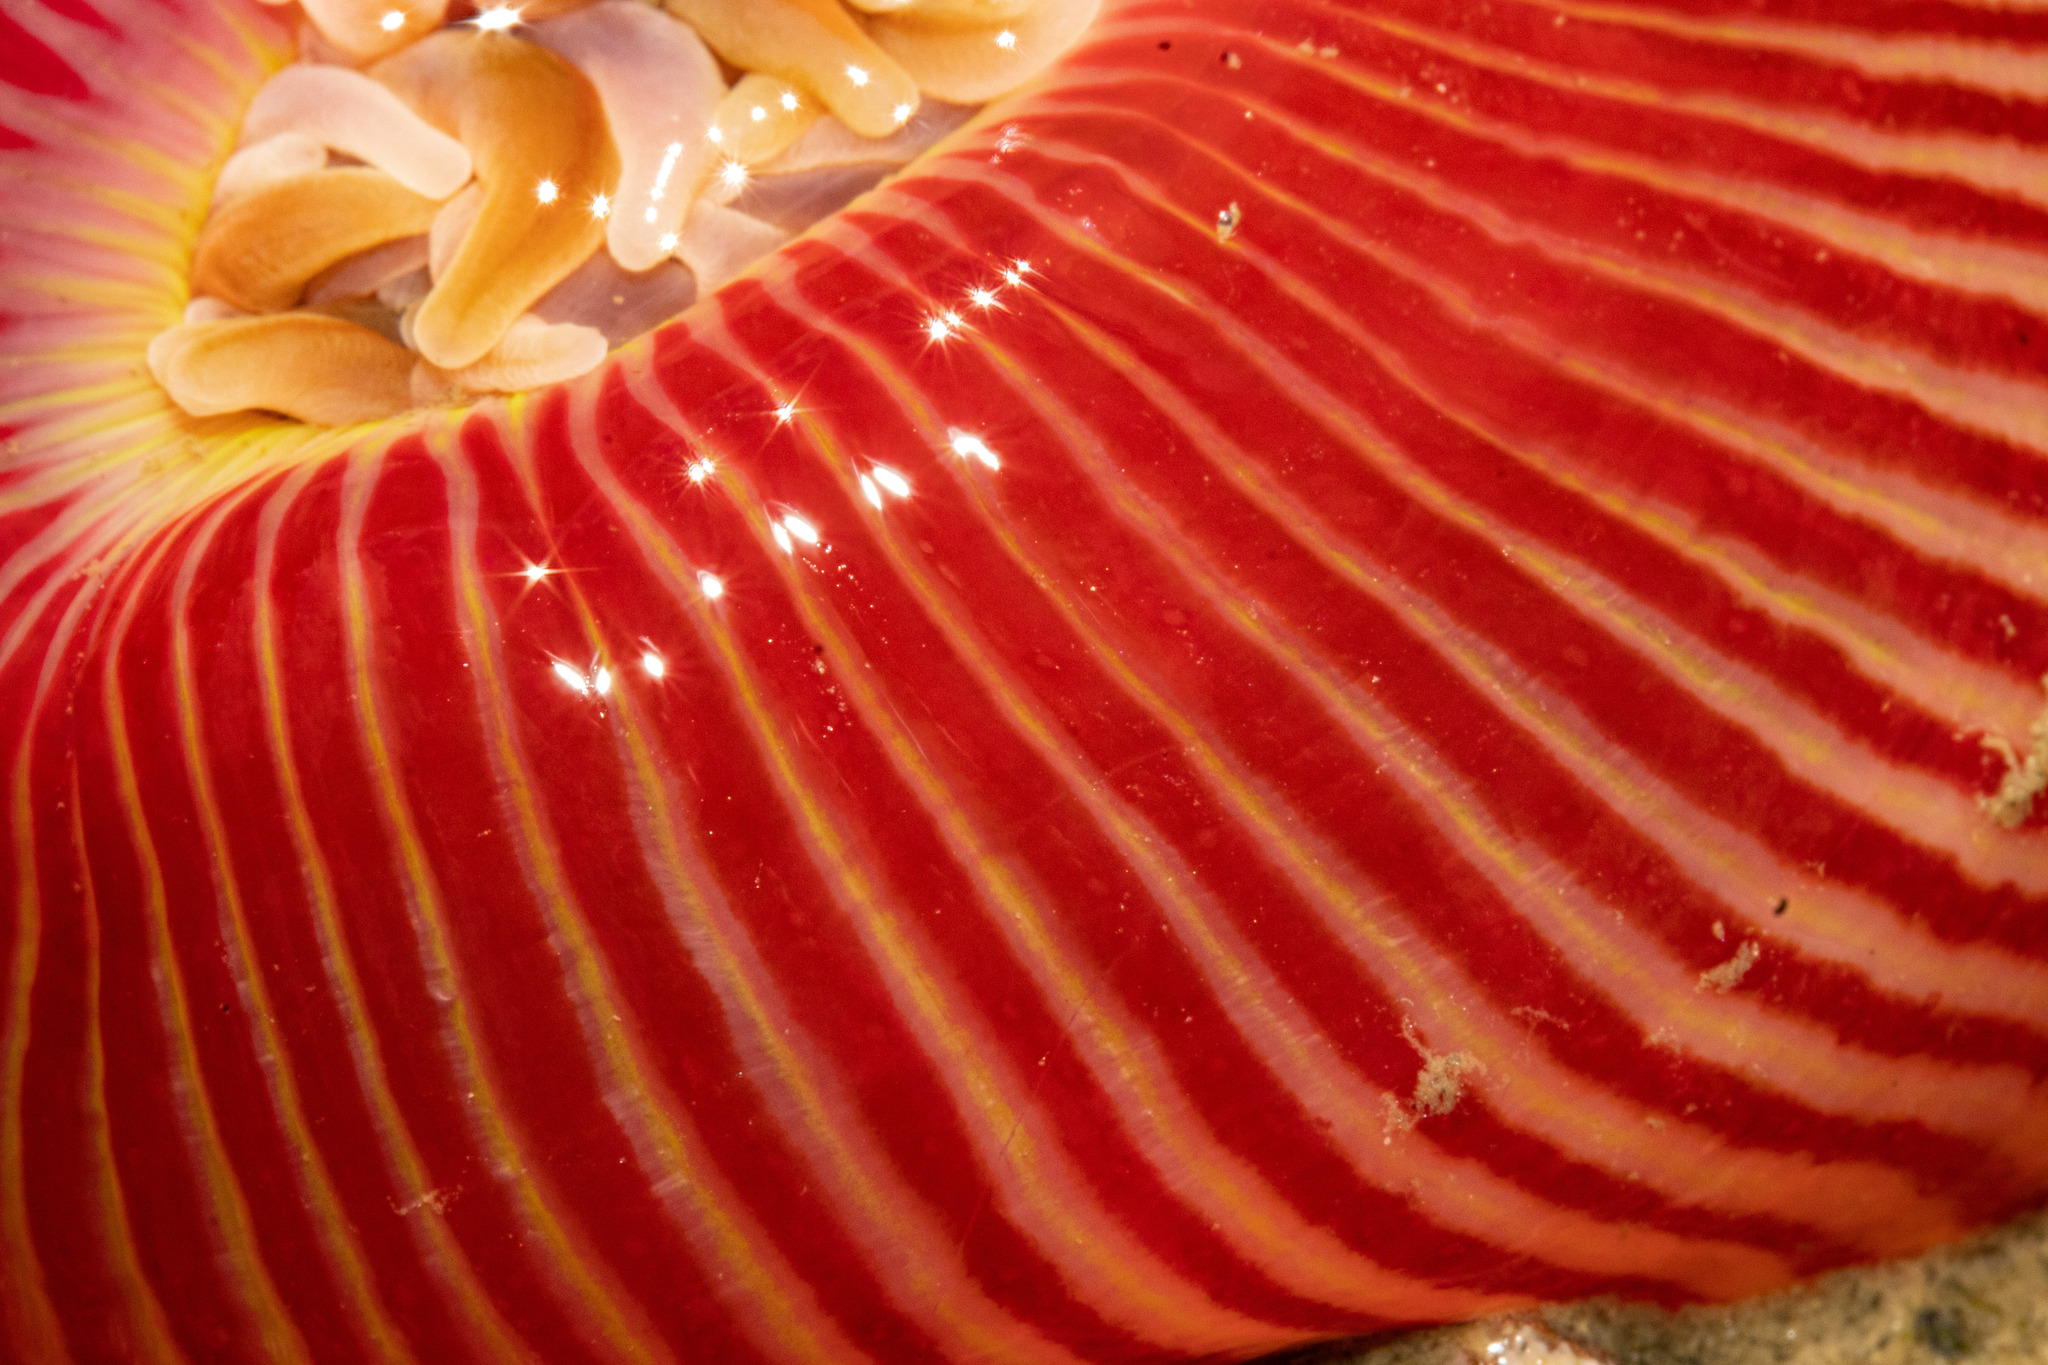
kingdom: Animalia
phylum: Cnidaria
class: Anthozoa
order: Actiniaria
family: Actiniidae
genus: Epiactis
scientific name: Epiactis thompsoni
